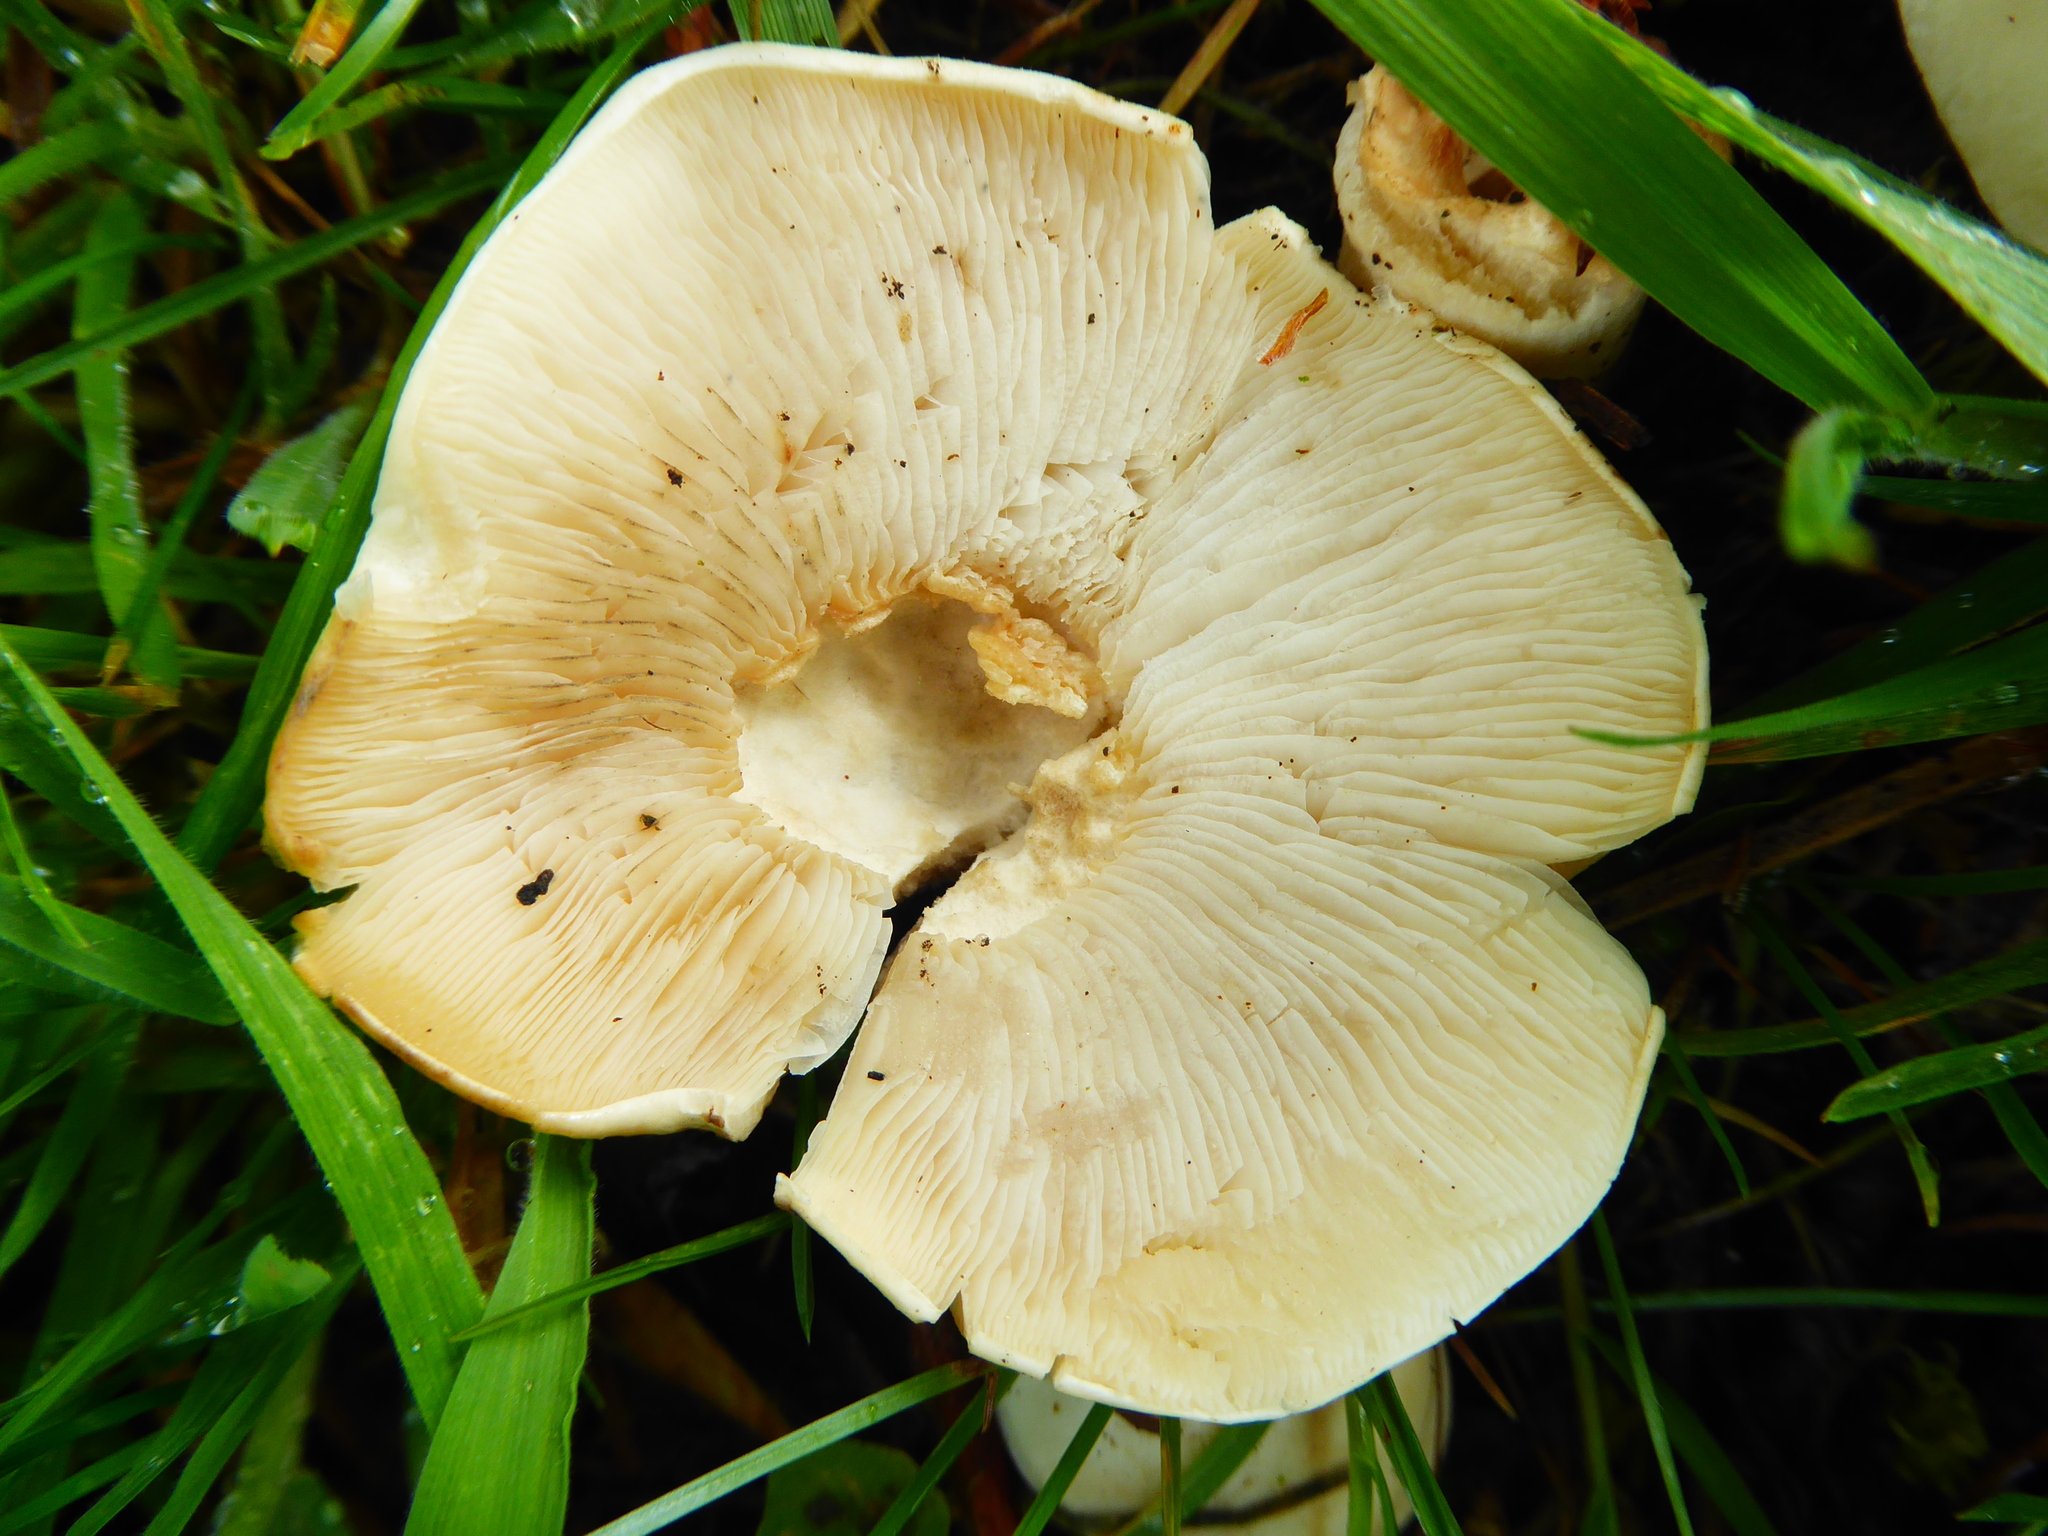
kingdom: Fungi
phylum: Basidiomycota
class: Agaricomycetes
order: Agaricales
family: Lyophyllaceae
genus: Calocybe
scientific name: Calocybe gambosa
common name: St. george's mushroom
